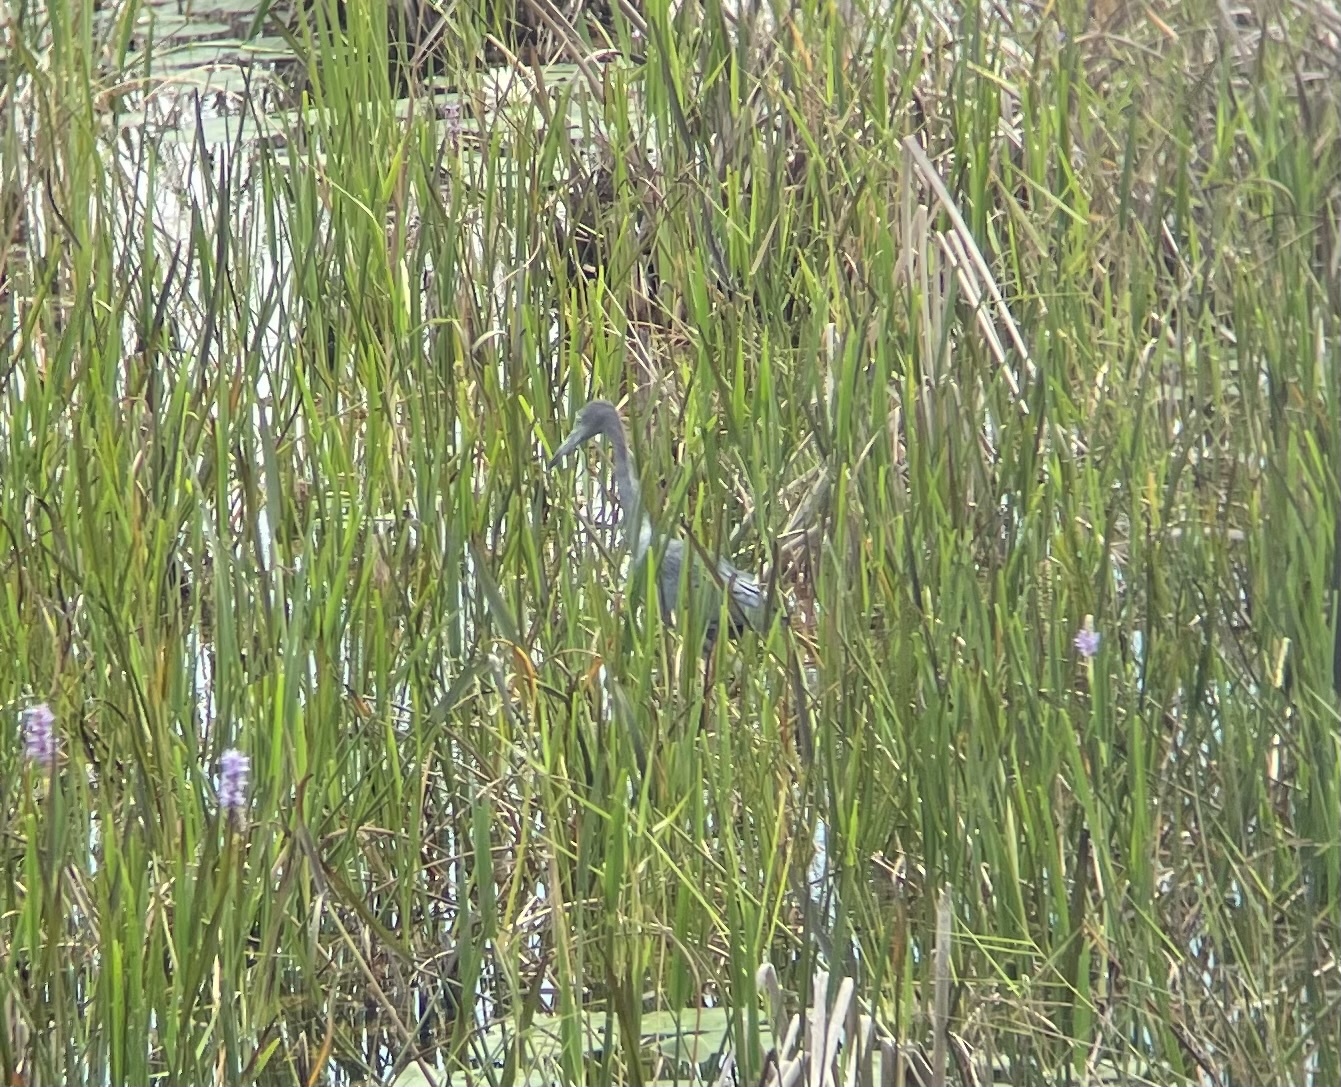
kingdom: Animalia
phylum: Chordata
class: Aves
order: Pelecaniformes
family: Ardeidae
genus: Egretta
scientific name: Egretta caerulea
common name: Little blue heron
